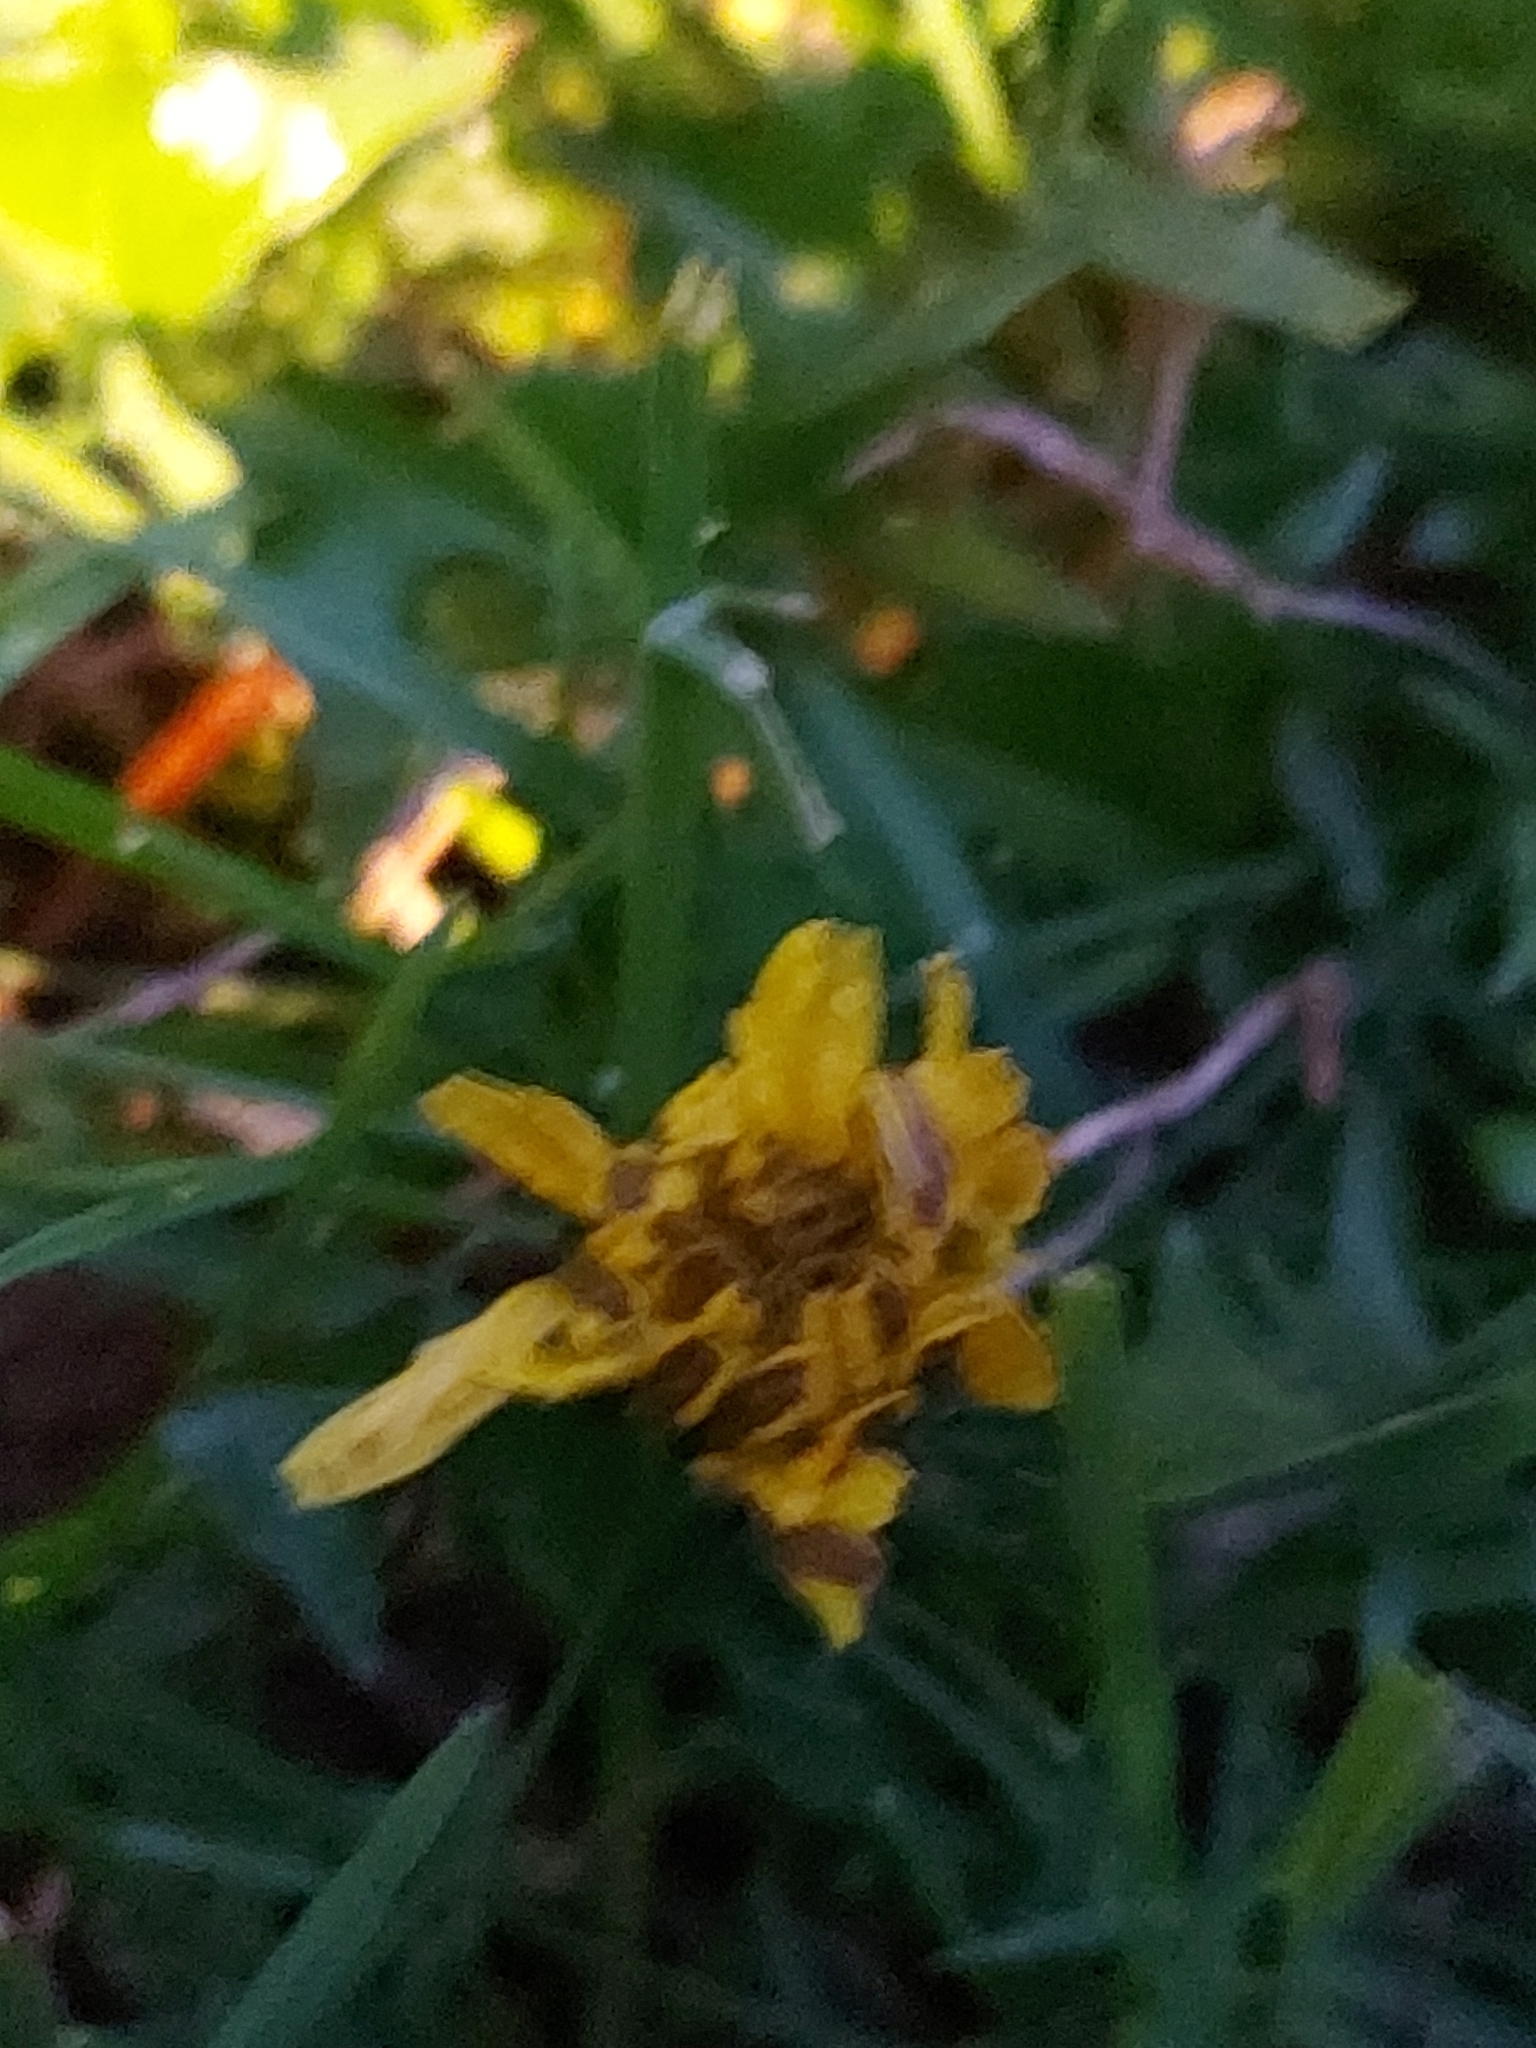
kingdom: Plantae
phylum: Tracheophyta
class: Magnoliopsida
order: Asterales
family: Asteraceae
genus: Taraxacum
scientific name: Taraxacum officinale
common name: Common dandelion
